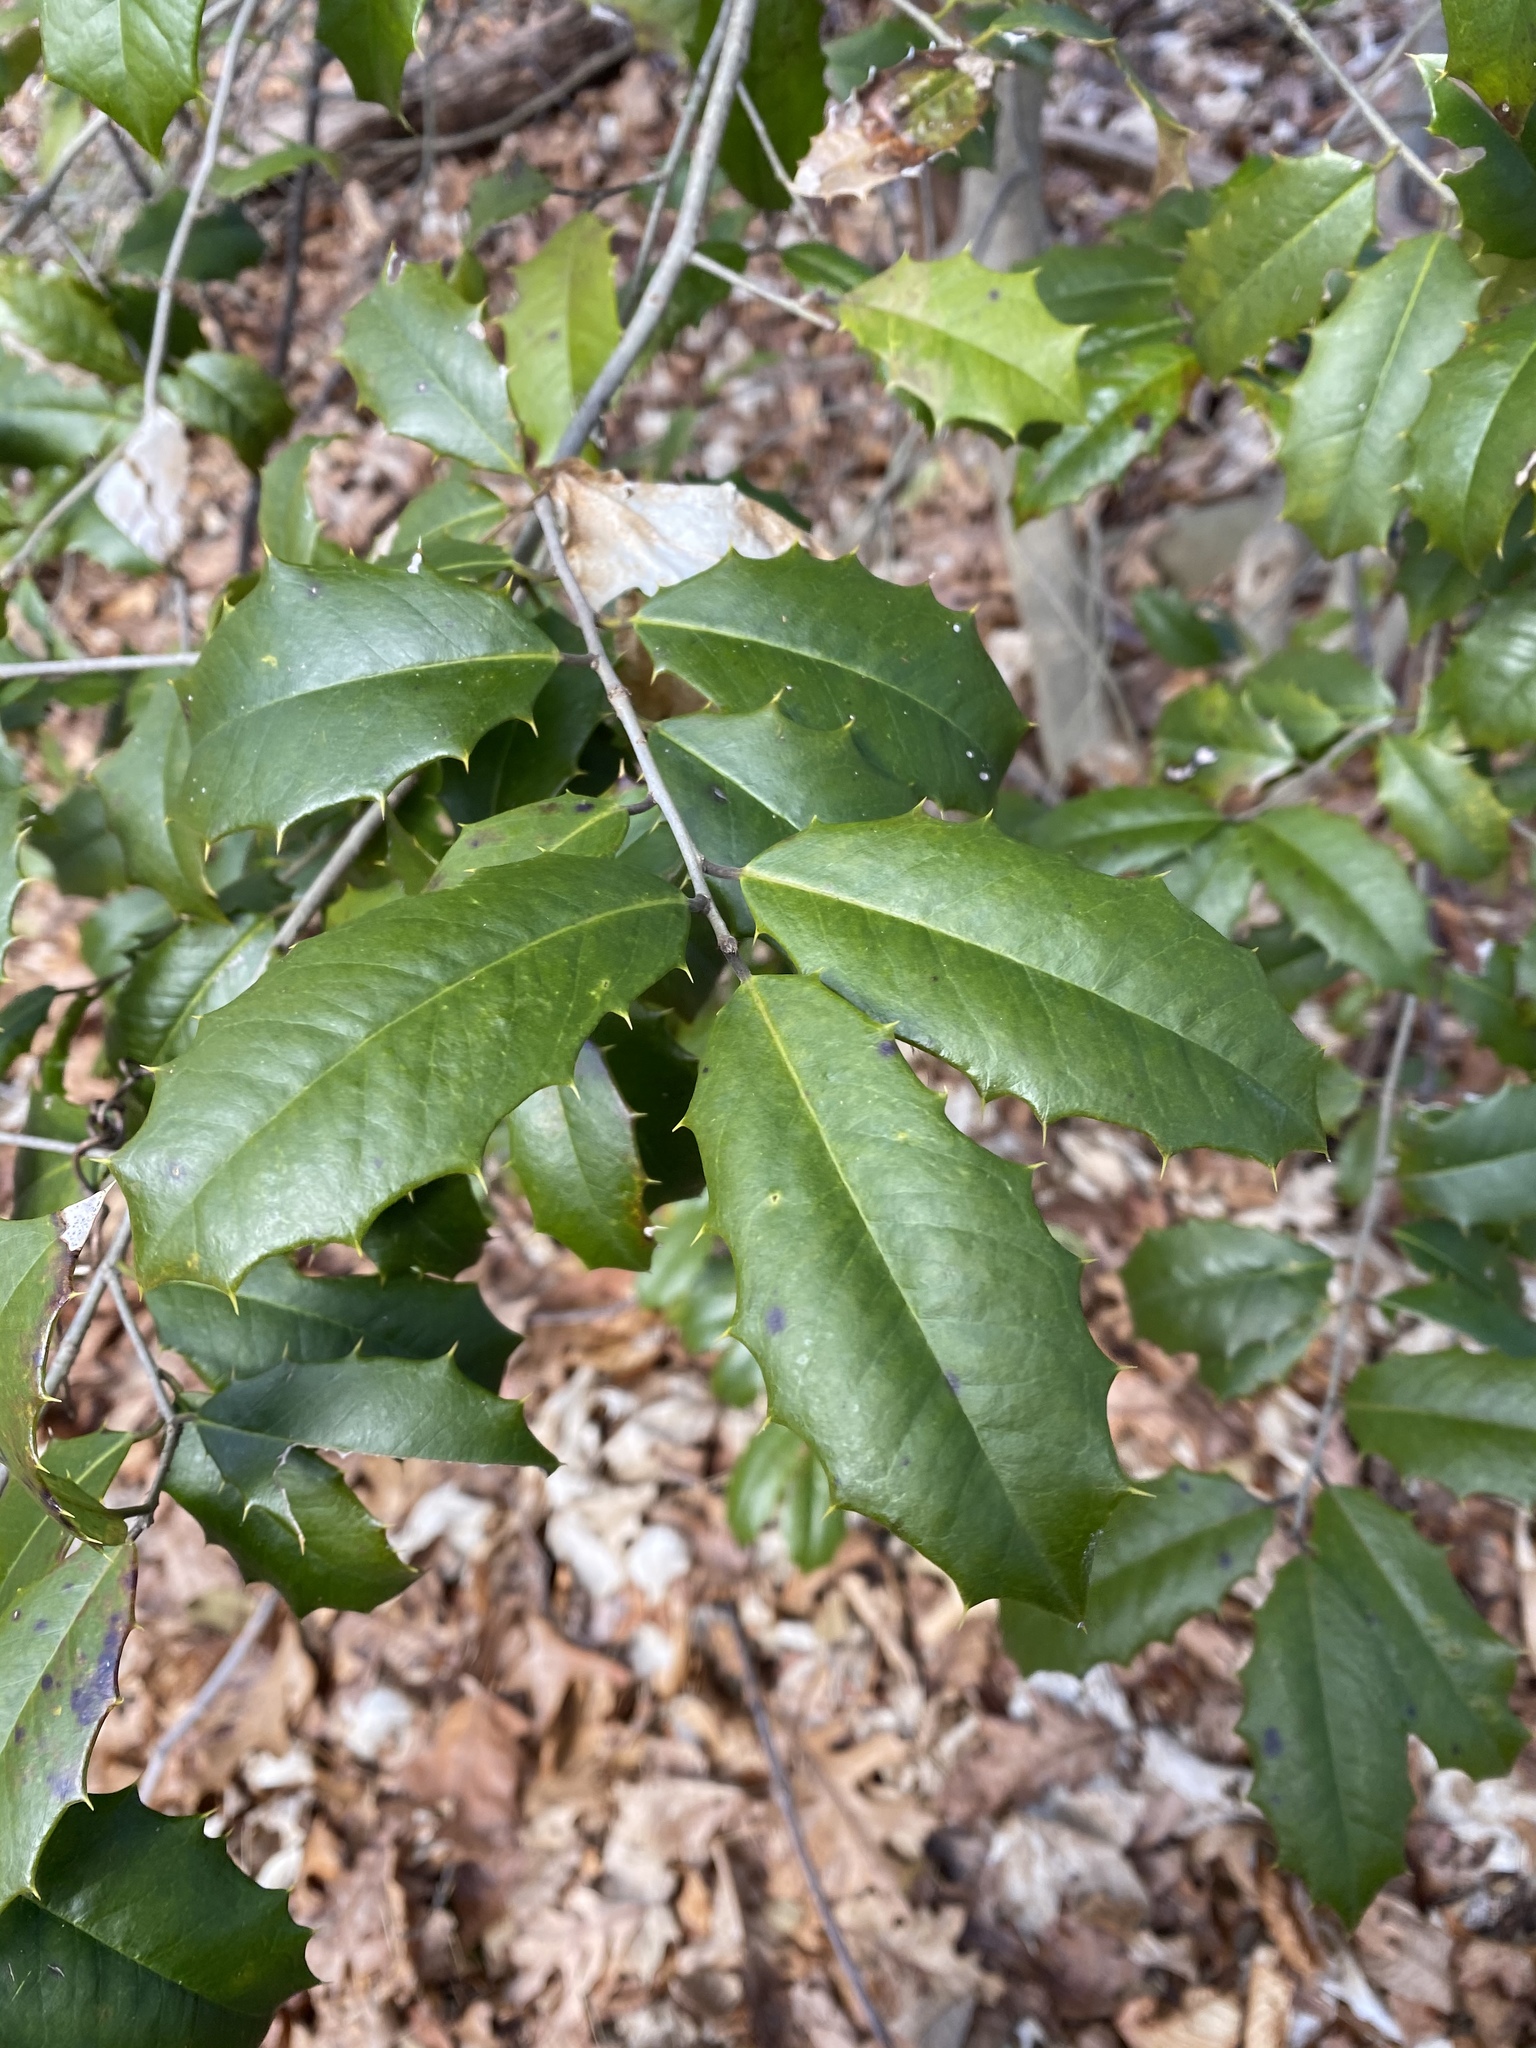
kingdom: Plantae
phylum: Tracheophyta
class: Magnoliopsida
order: Aquifoliales
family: Aquifoliaceae
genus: Ilex
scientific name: Ilex opaca
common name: American holly
